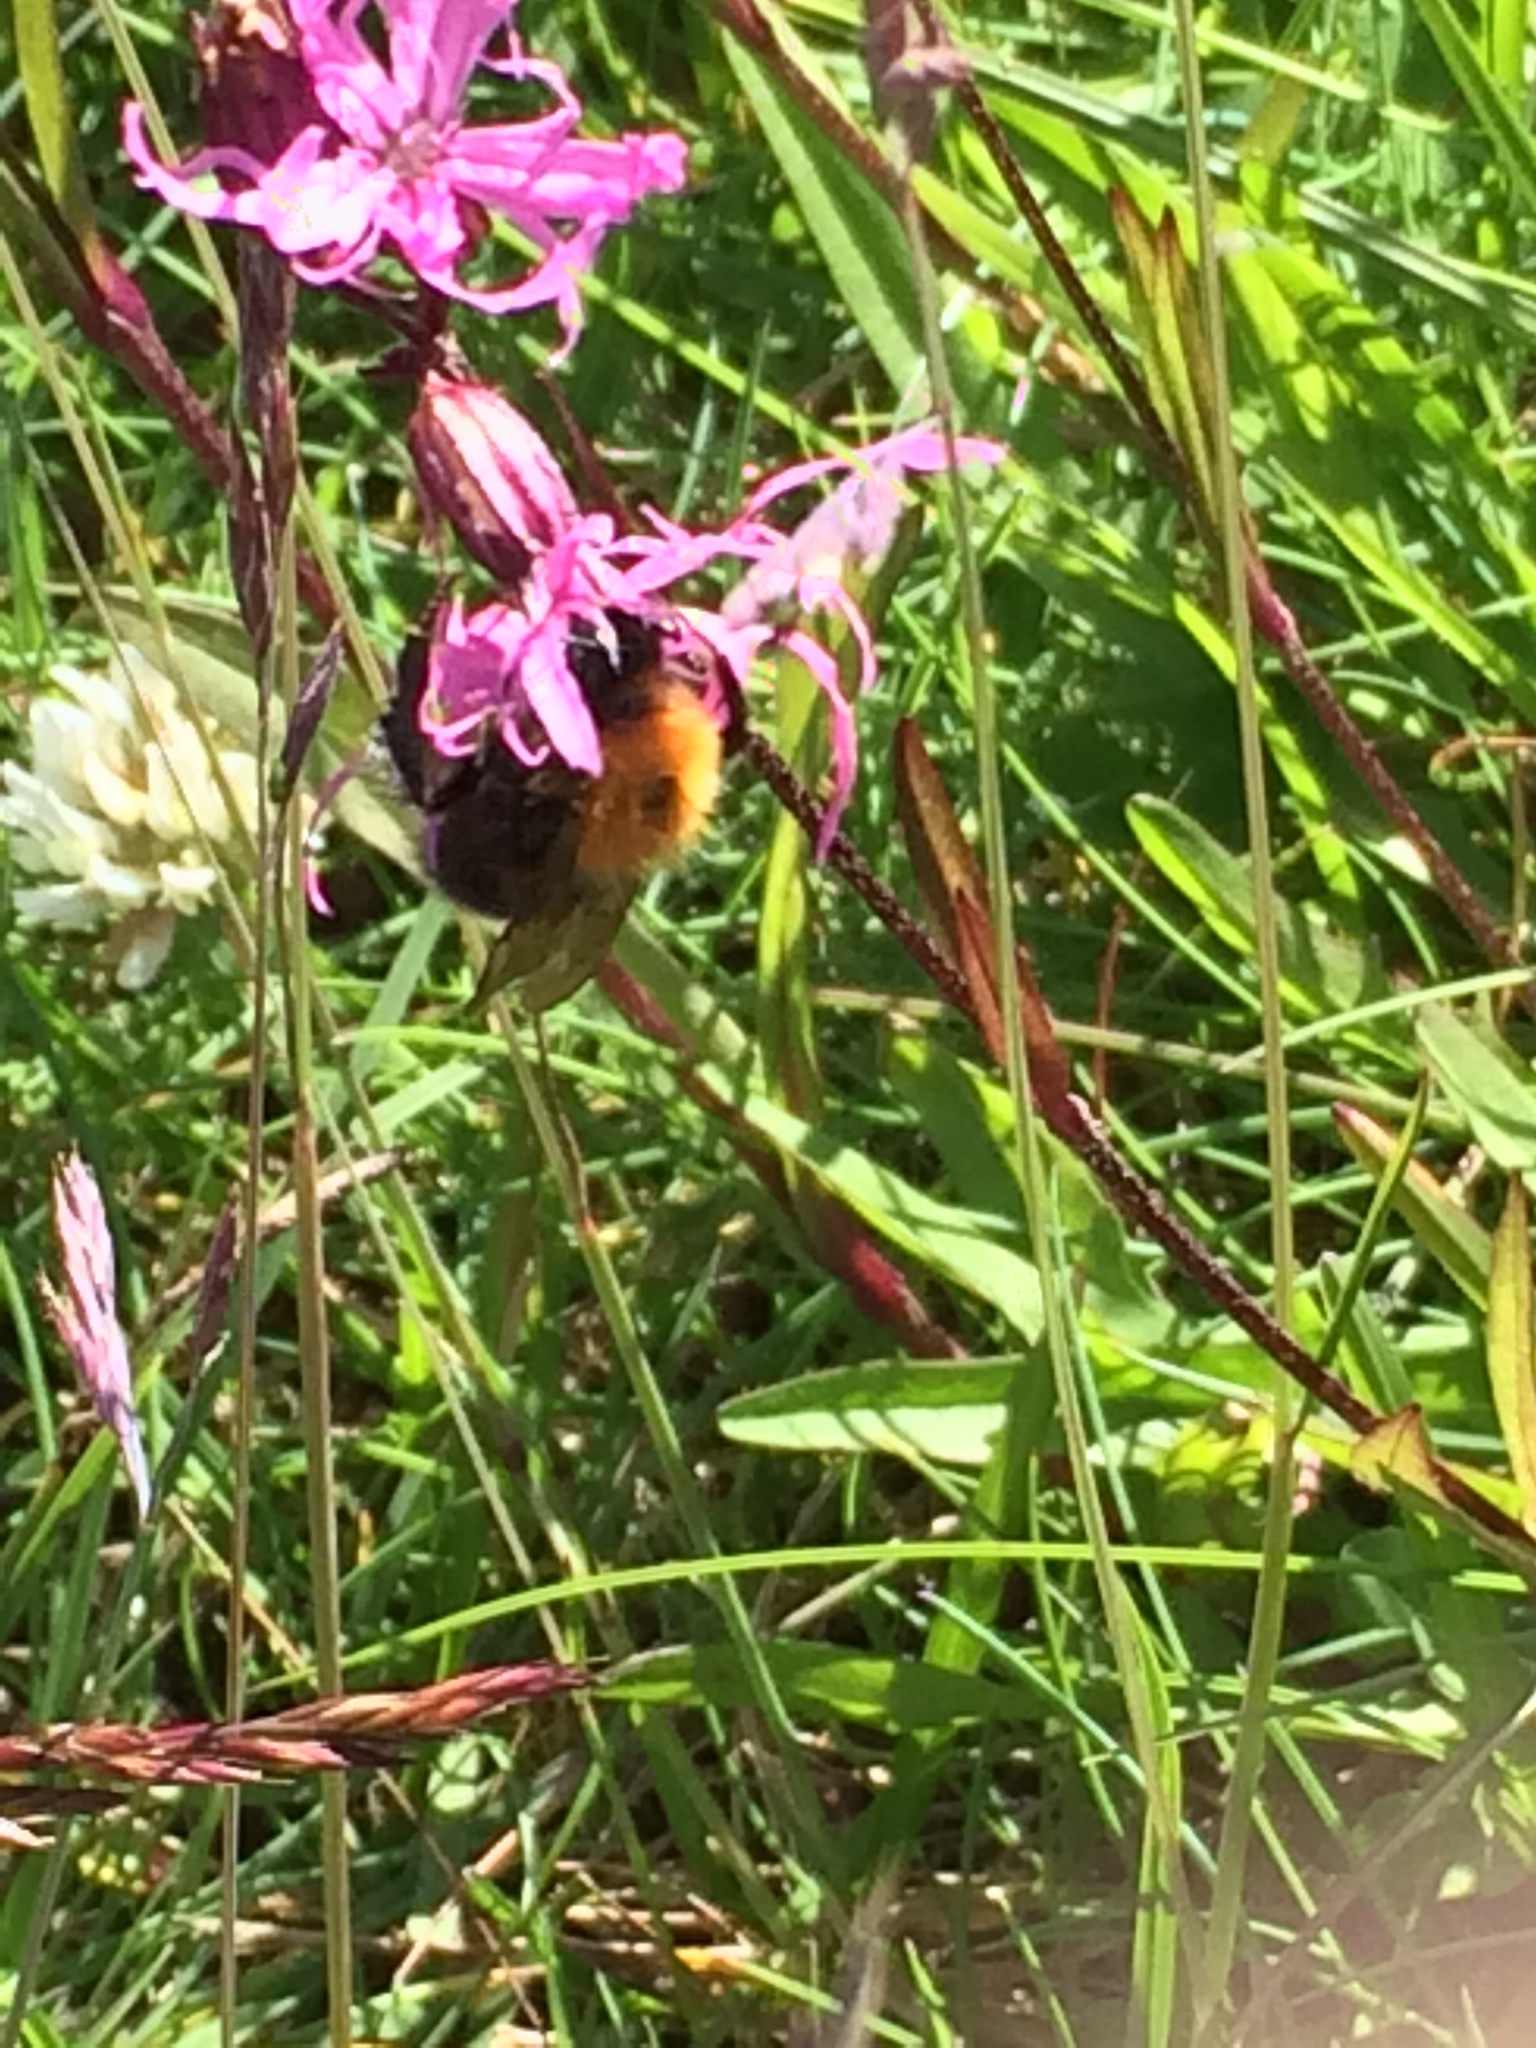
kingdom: Animalia
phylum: Arthropoda
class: Insecta
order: Hymenoptera
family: Apidae
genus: Bombus
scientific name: Bombus hypnorum
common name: New garden bumblebee
